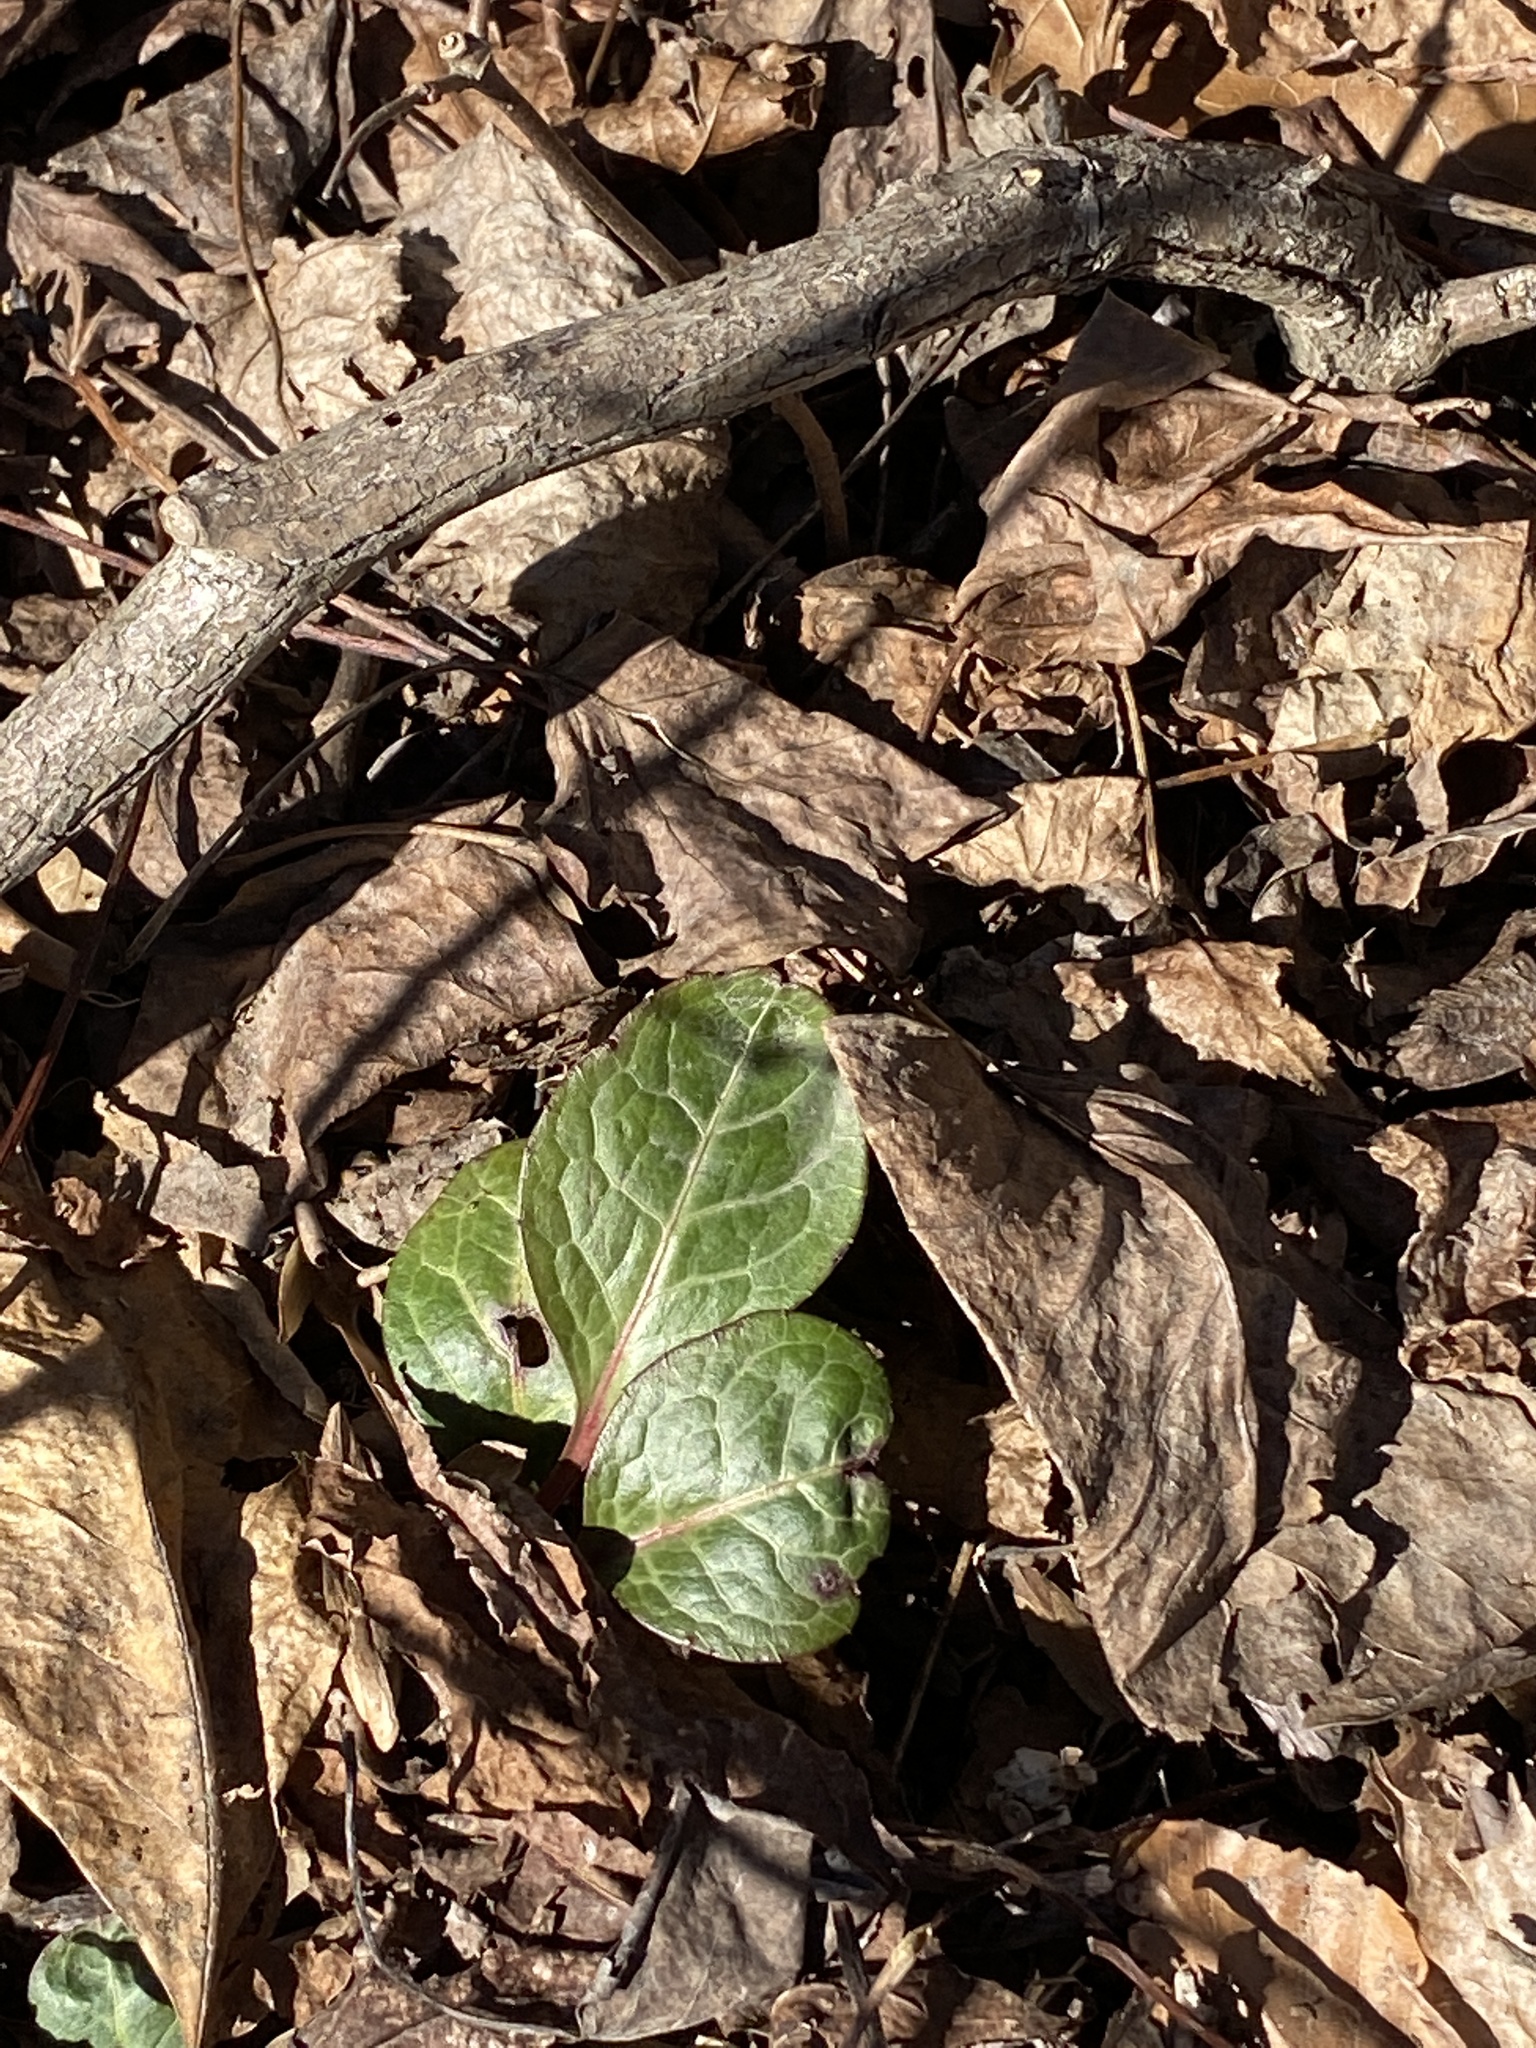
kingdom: Plantae
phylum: Tracheophyta
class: Magnoliopsida
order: Ericales
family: Ericaceae
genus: Pyrola
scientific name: Pyrola americana
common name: American wintergreen
